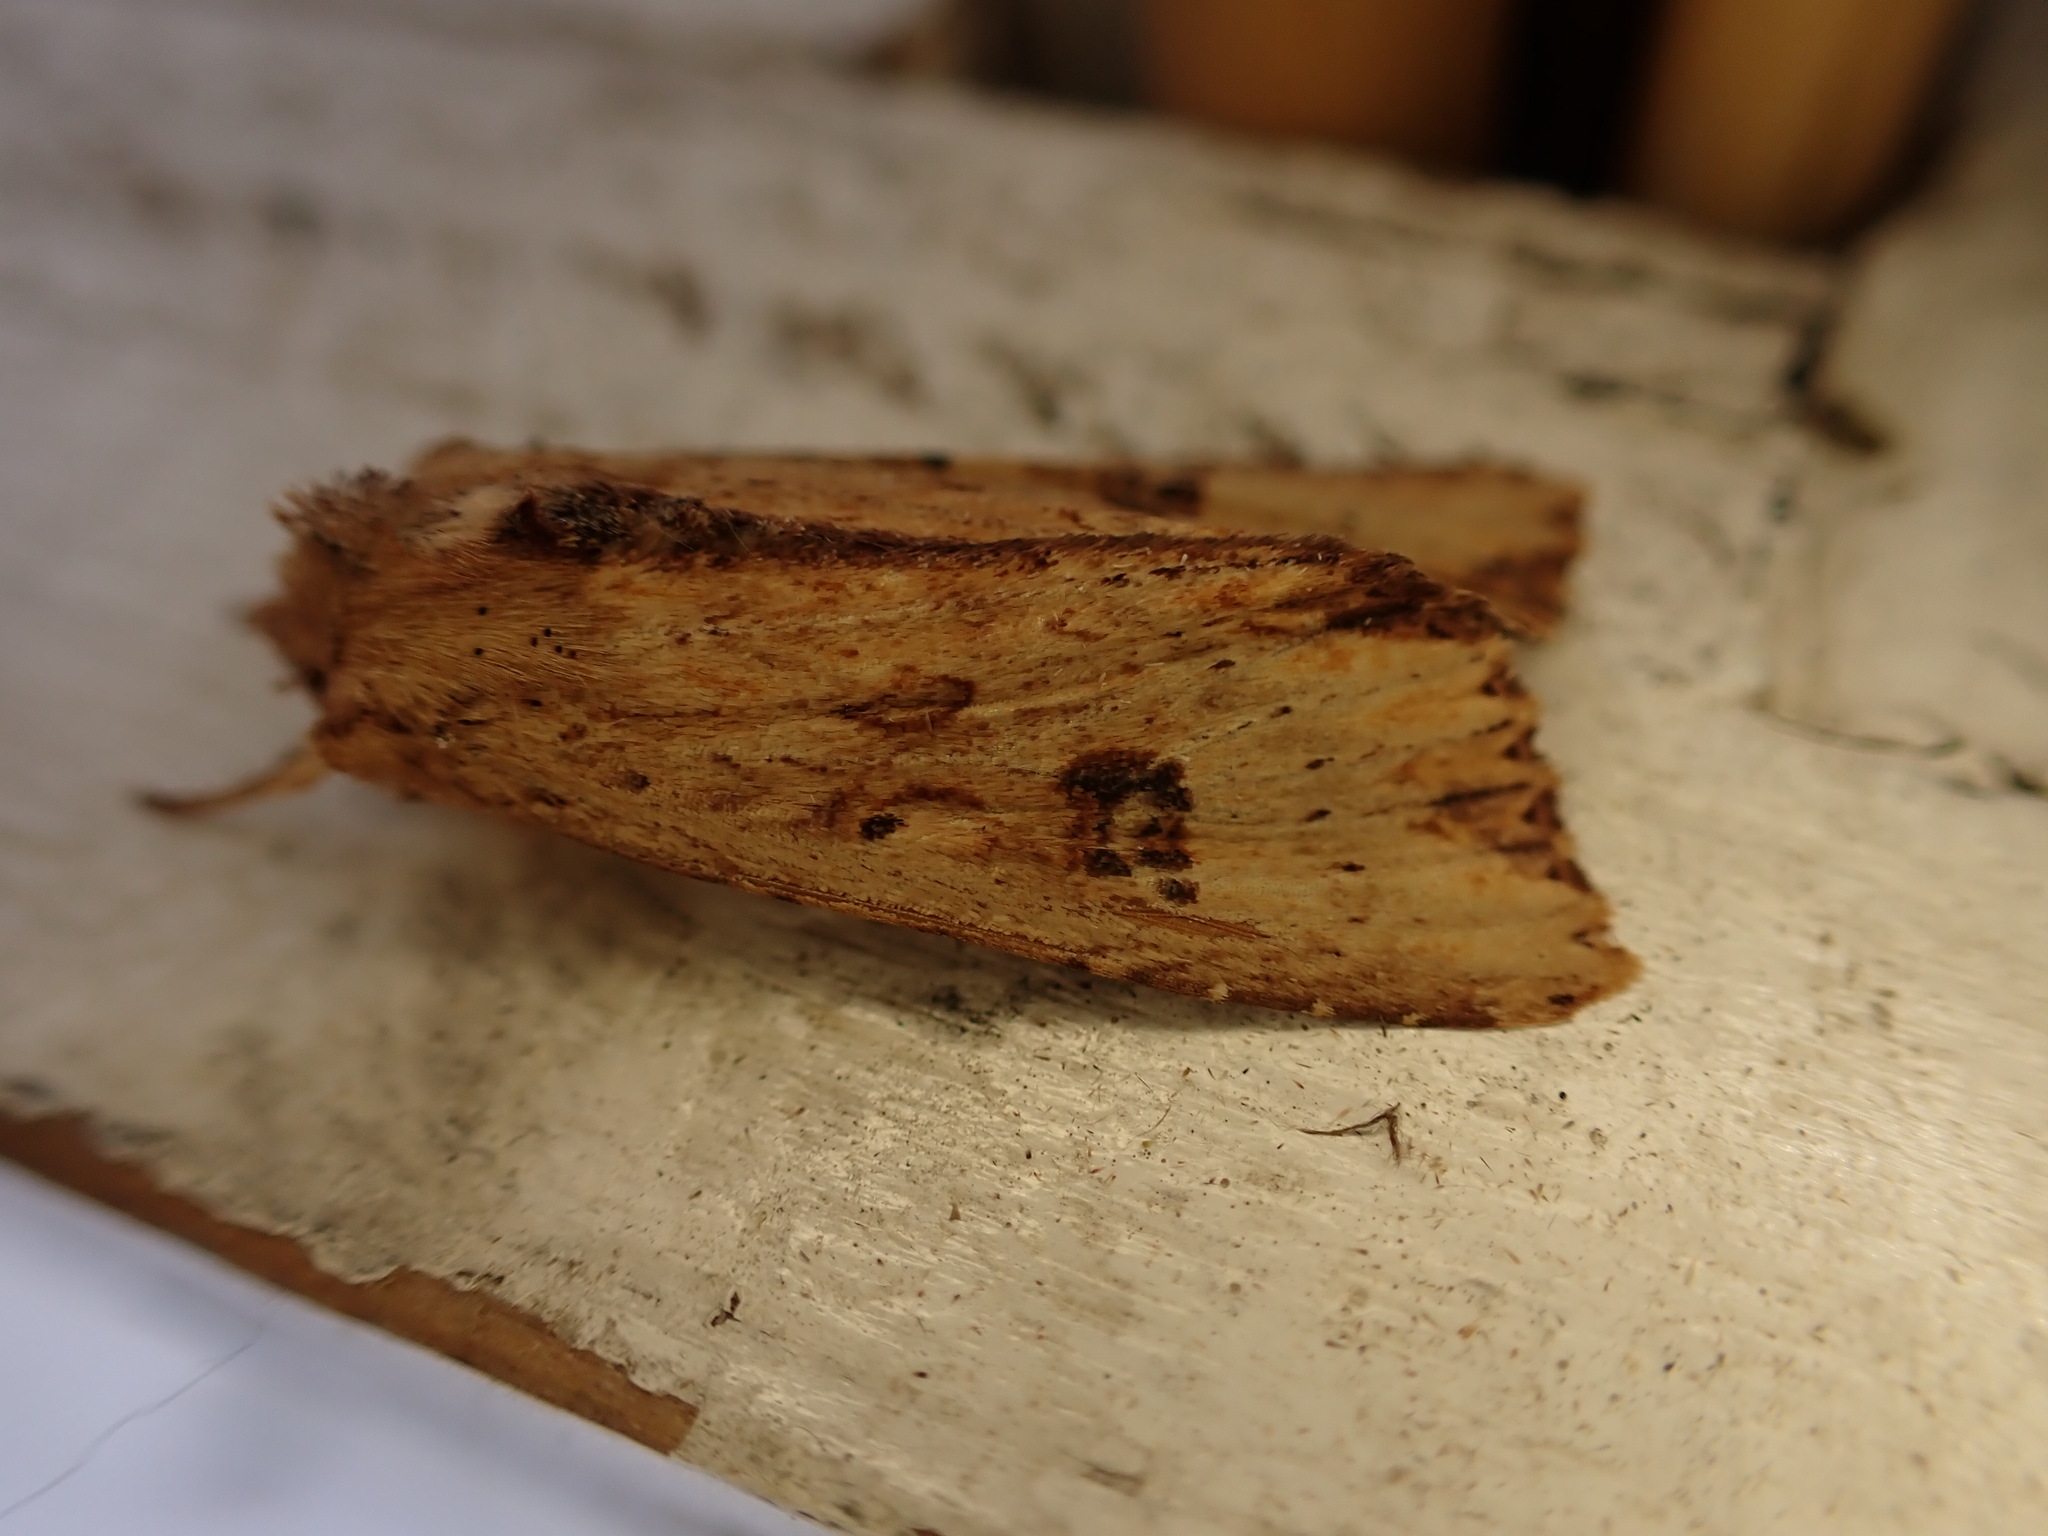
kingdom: Animalia
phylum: Arthropoda
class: Insecta
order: Lepidoptera
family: Noctuidae
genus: Ichneutica
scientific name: Ichneutica
